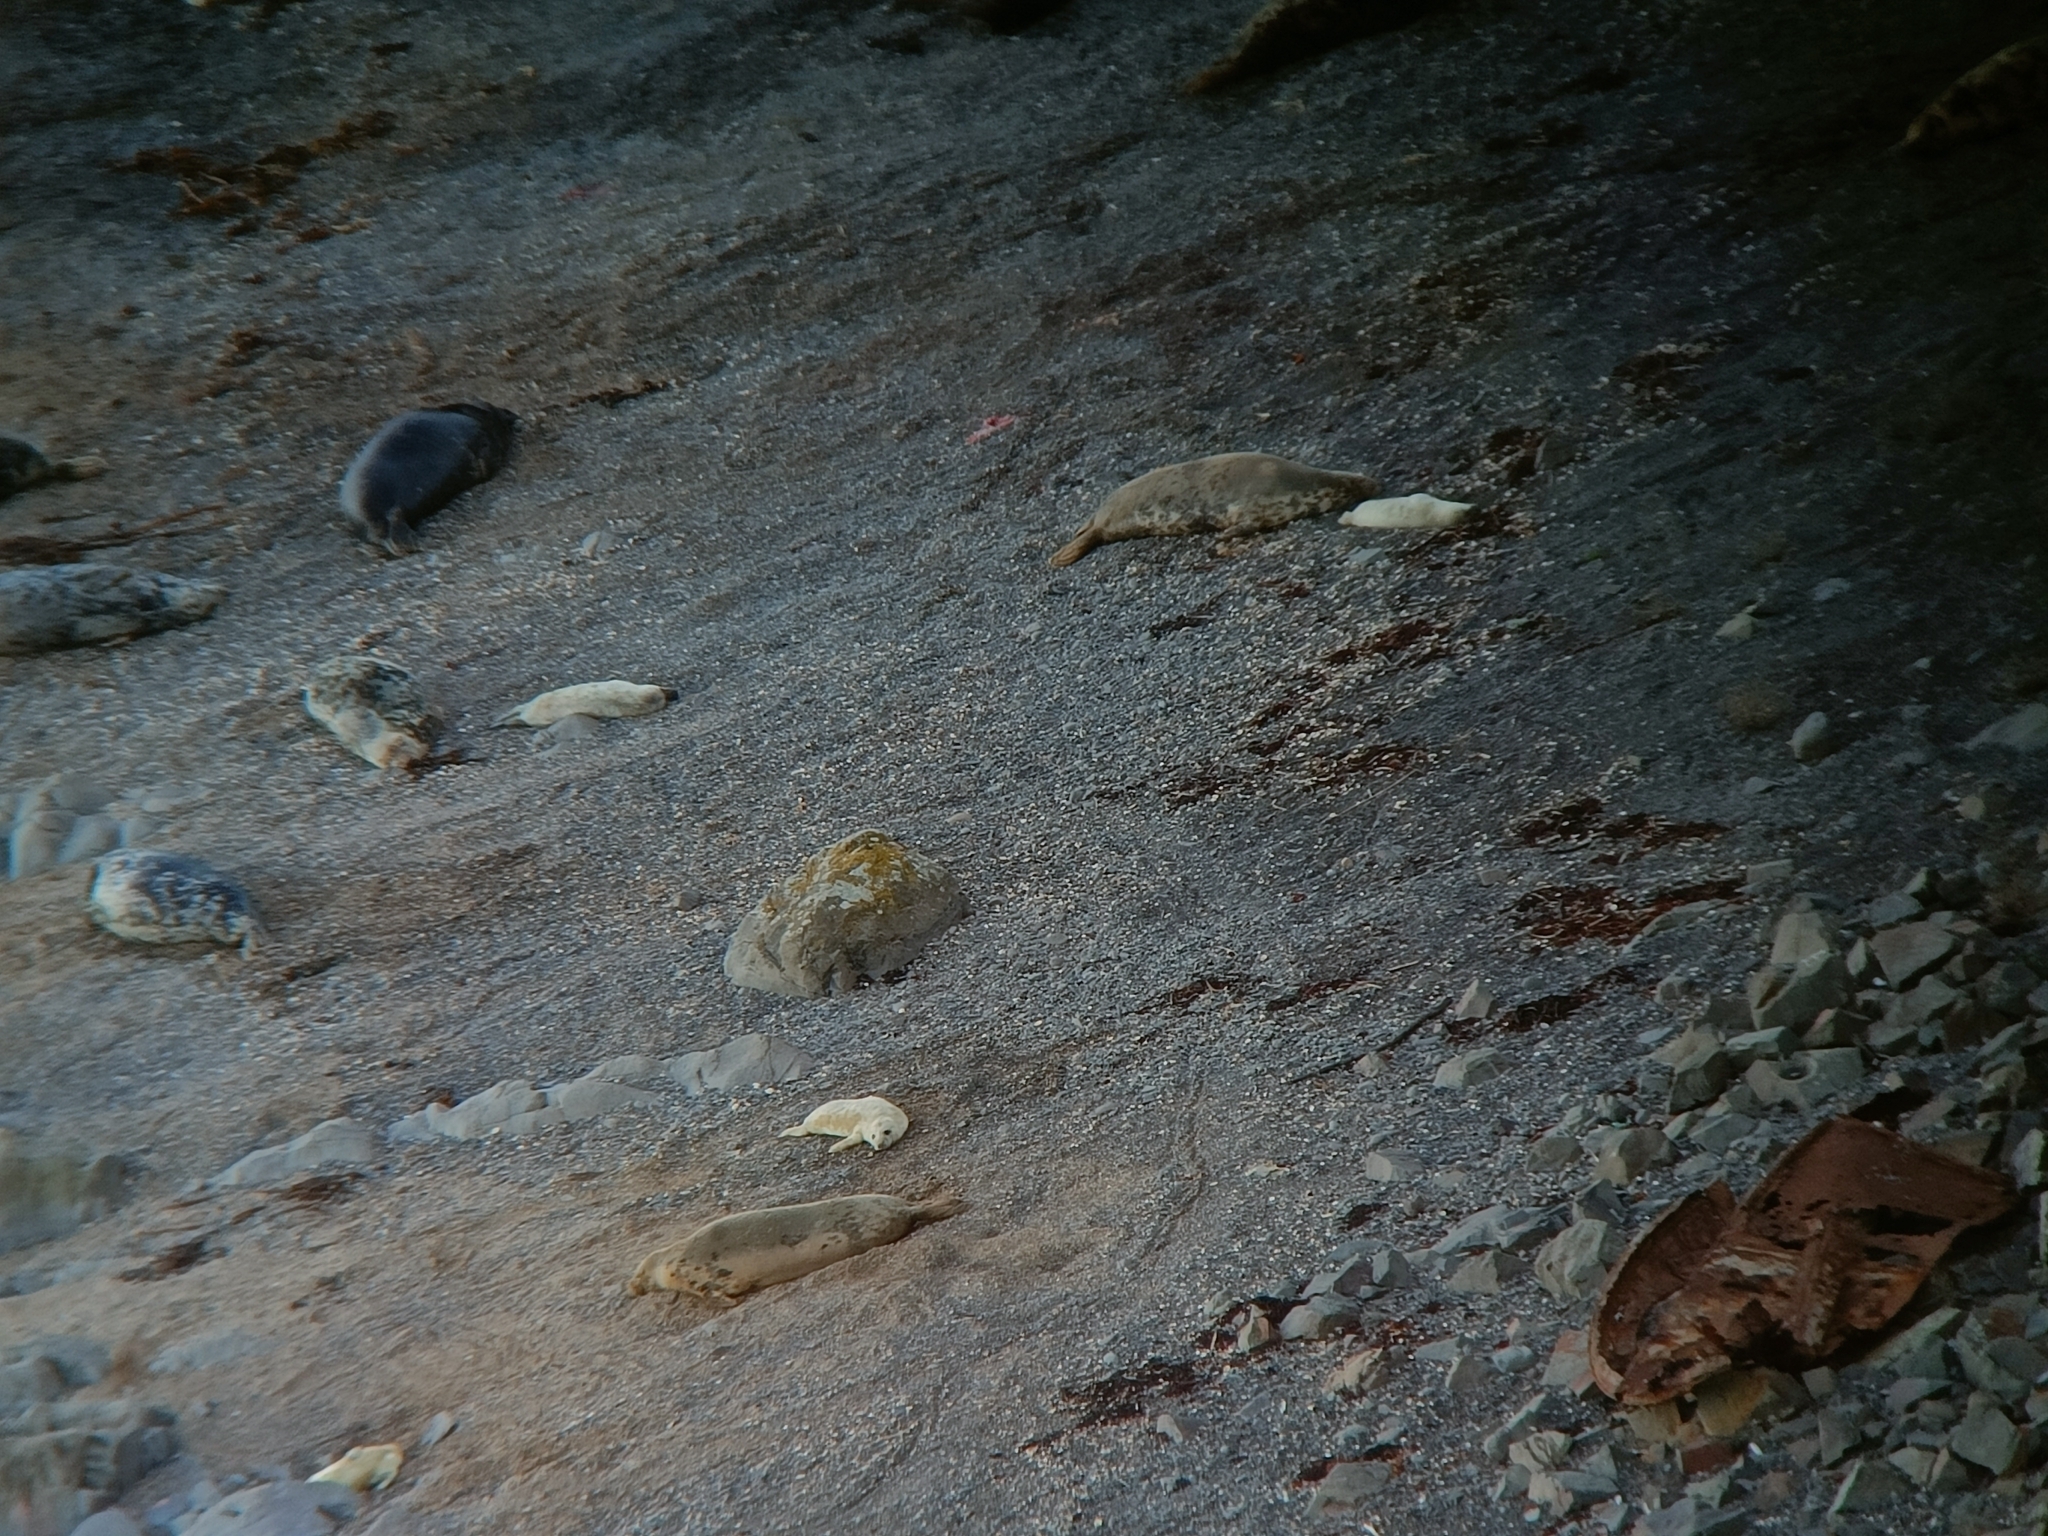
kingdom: Animalia
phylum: Chordata
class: Mammalia
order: Carnivora
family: Phocidae
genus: Halichoerus
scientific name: Halichoerus grypus
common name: Grey seal
